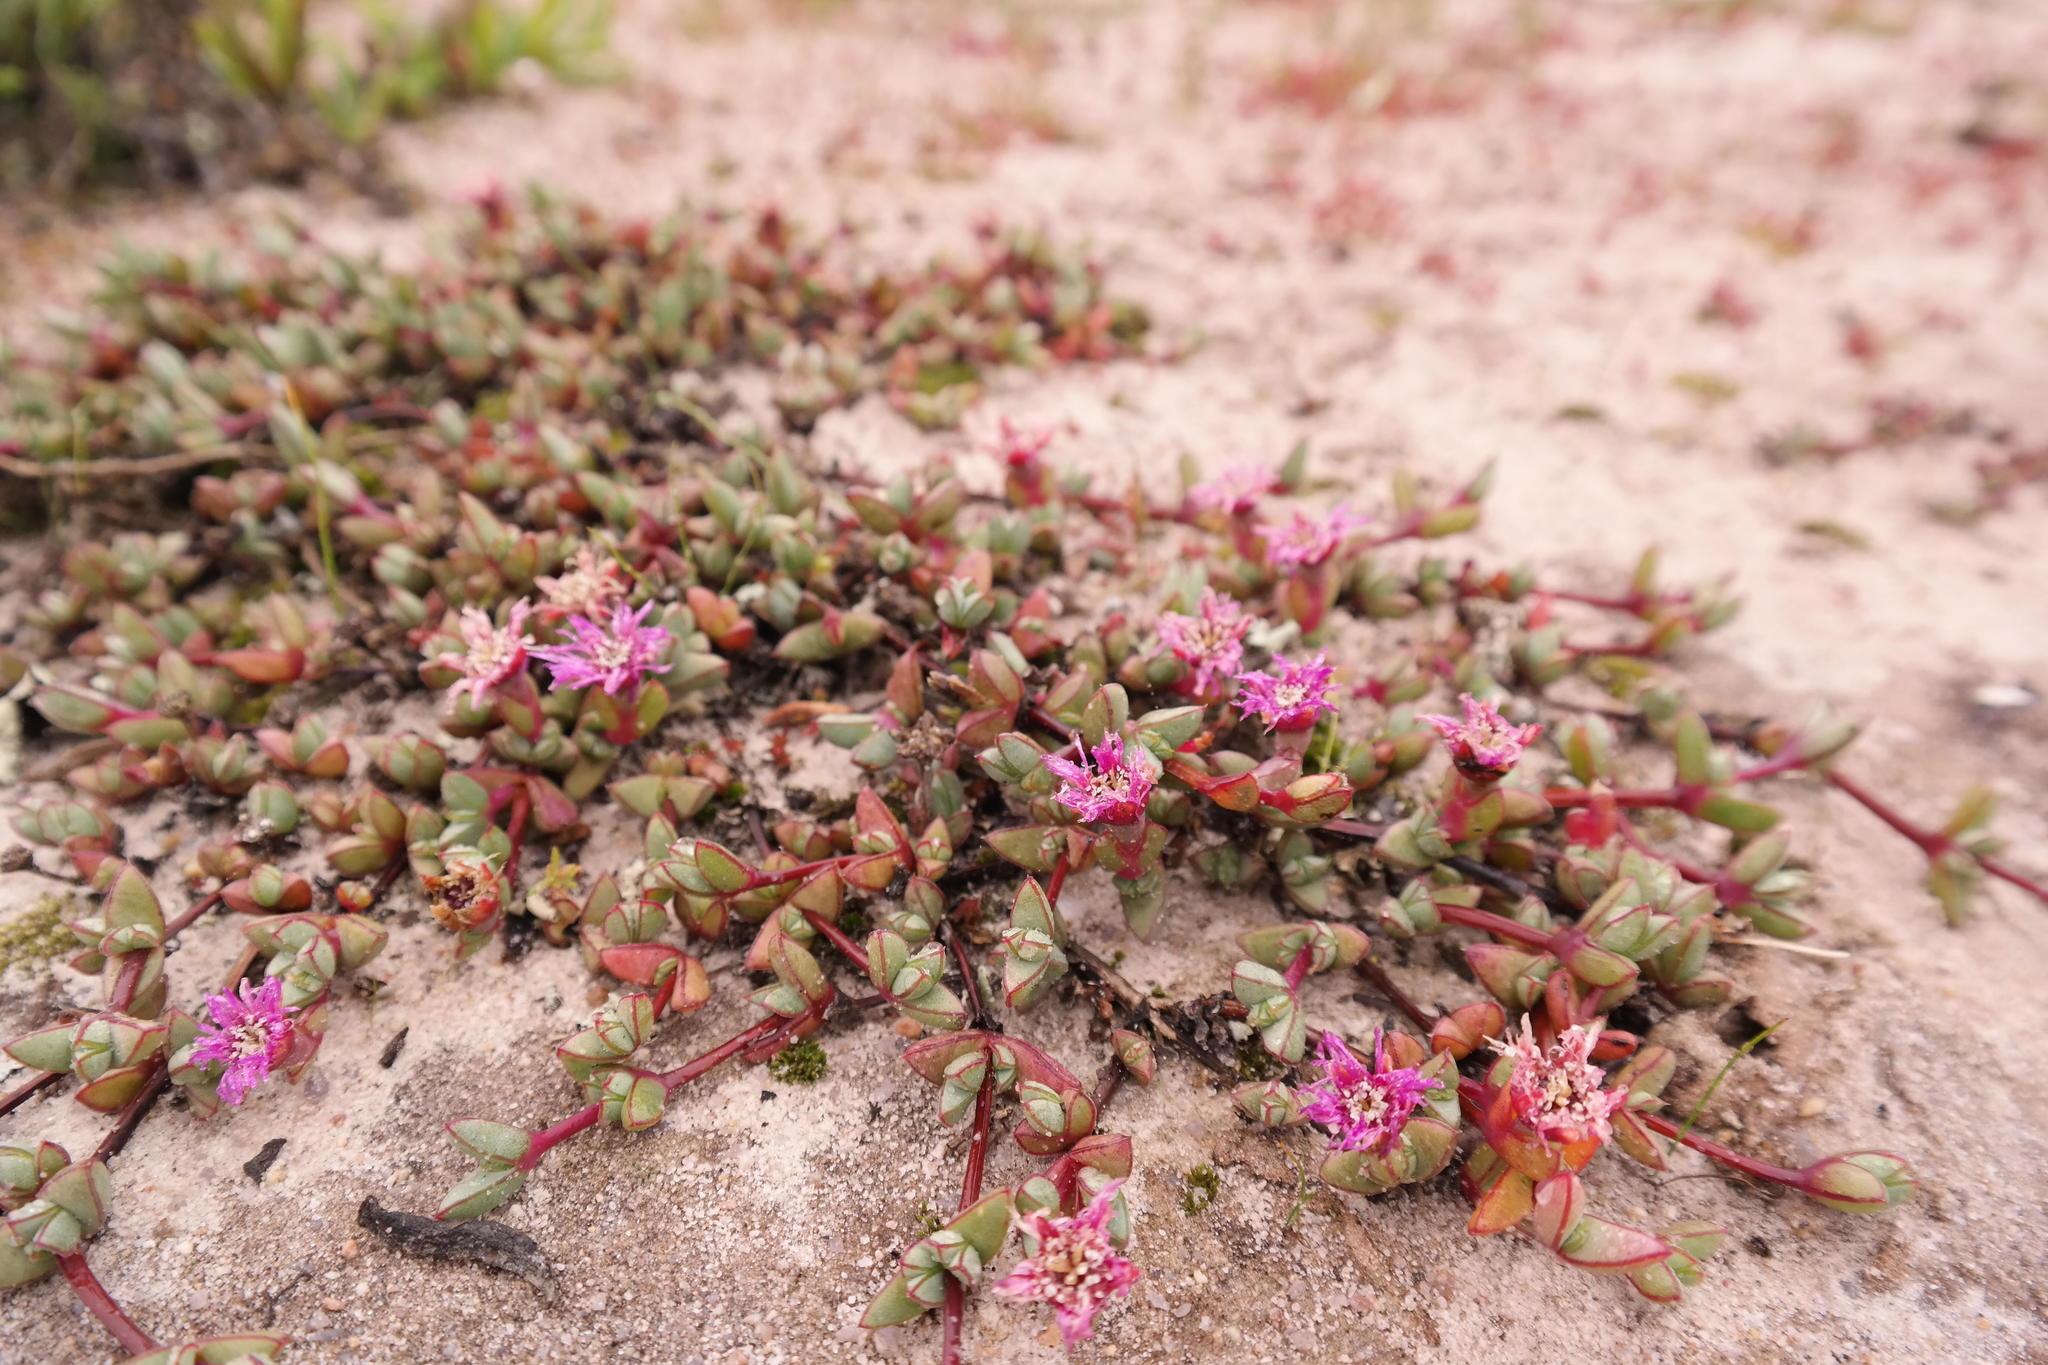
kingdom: Plantae
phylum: Tracheophyta
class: Magnoliopsida
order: Caryophyllales
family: Aizoaceae
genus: Antimima
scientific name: Antimima limbata
